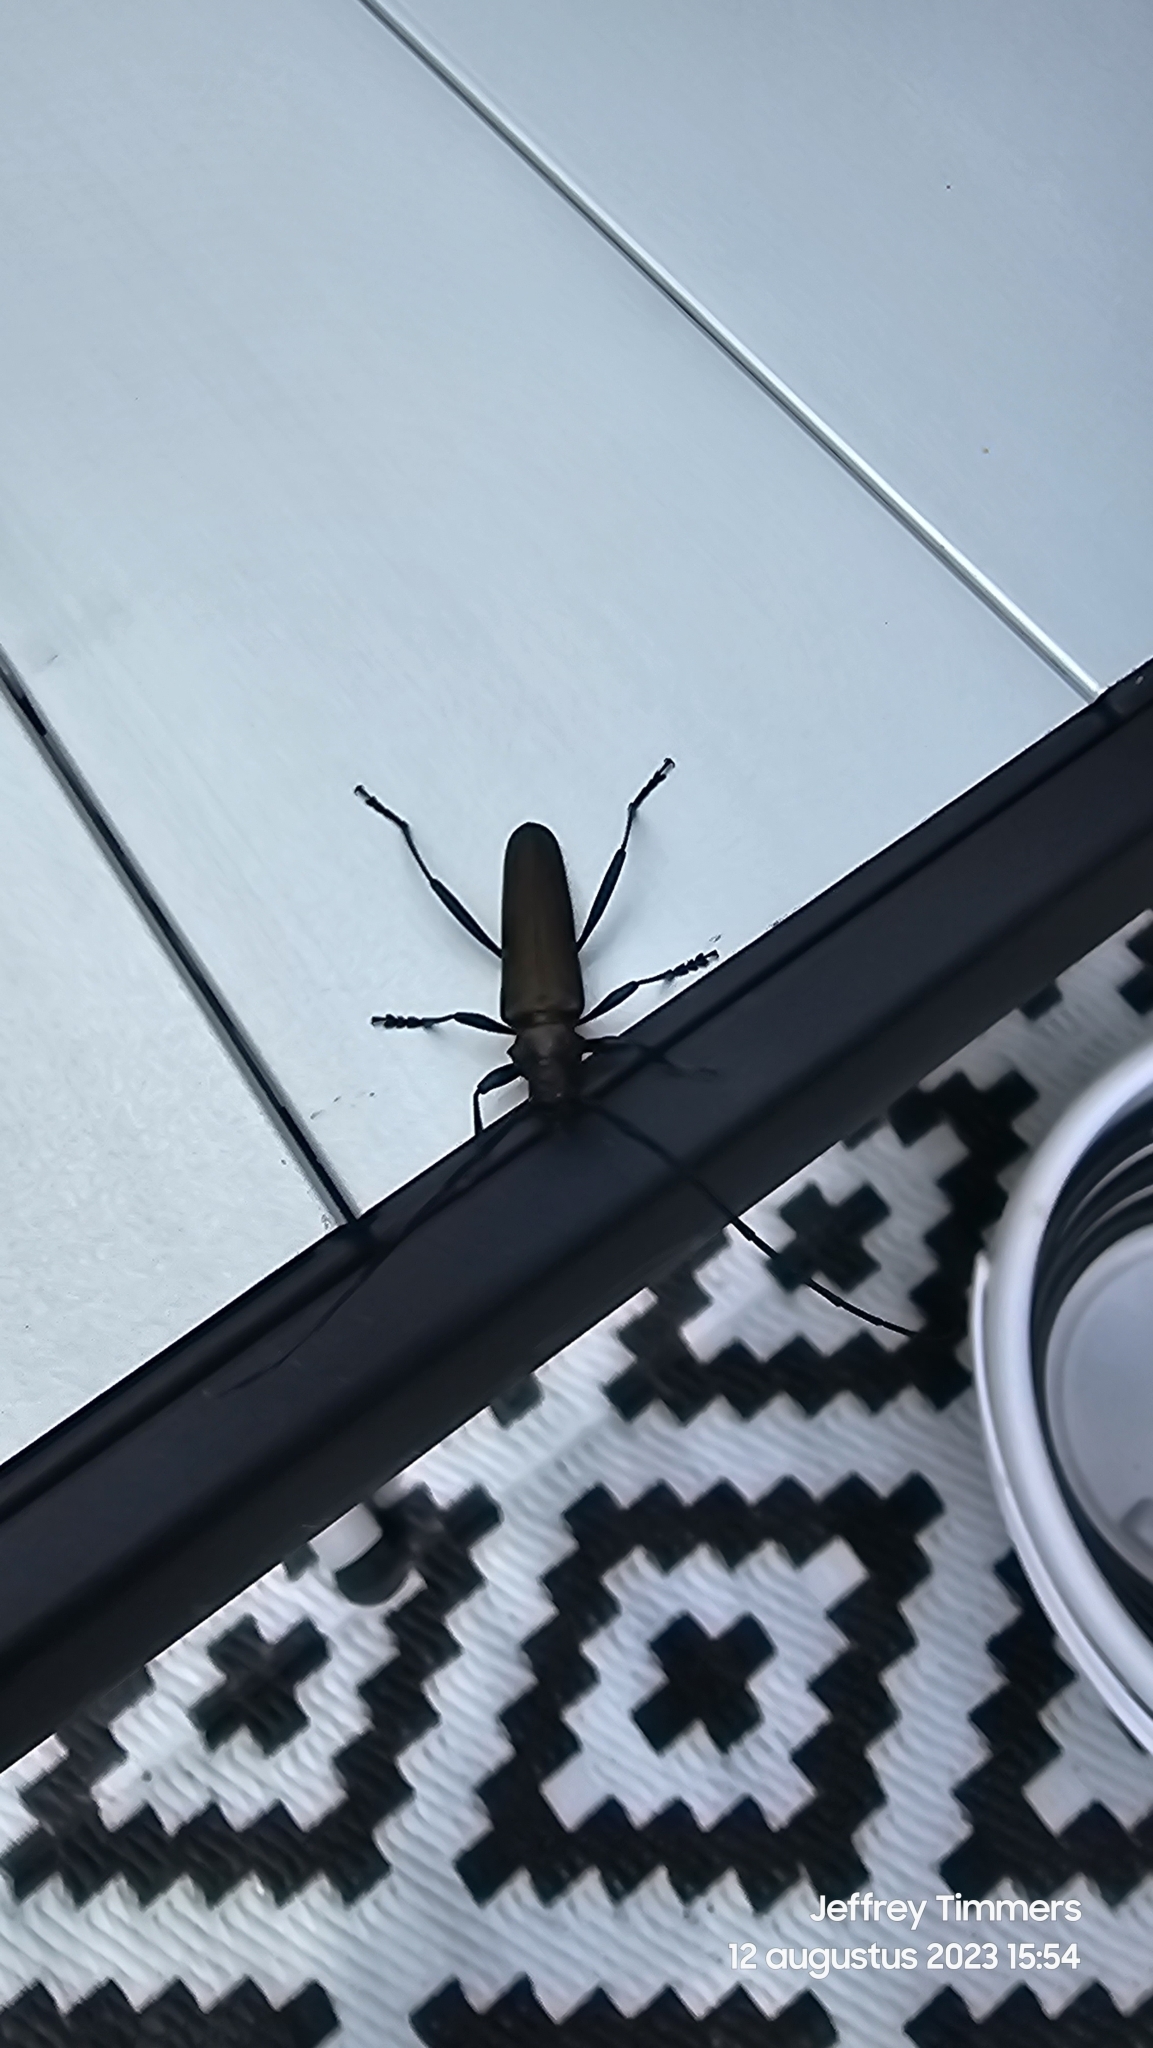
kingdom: Animalia
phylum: Arthropoda
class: Insecta
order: Coleoptera
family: Cerambycidae
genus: Aromia
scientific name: Aromia moschata
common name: Musk beetle
